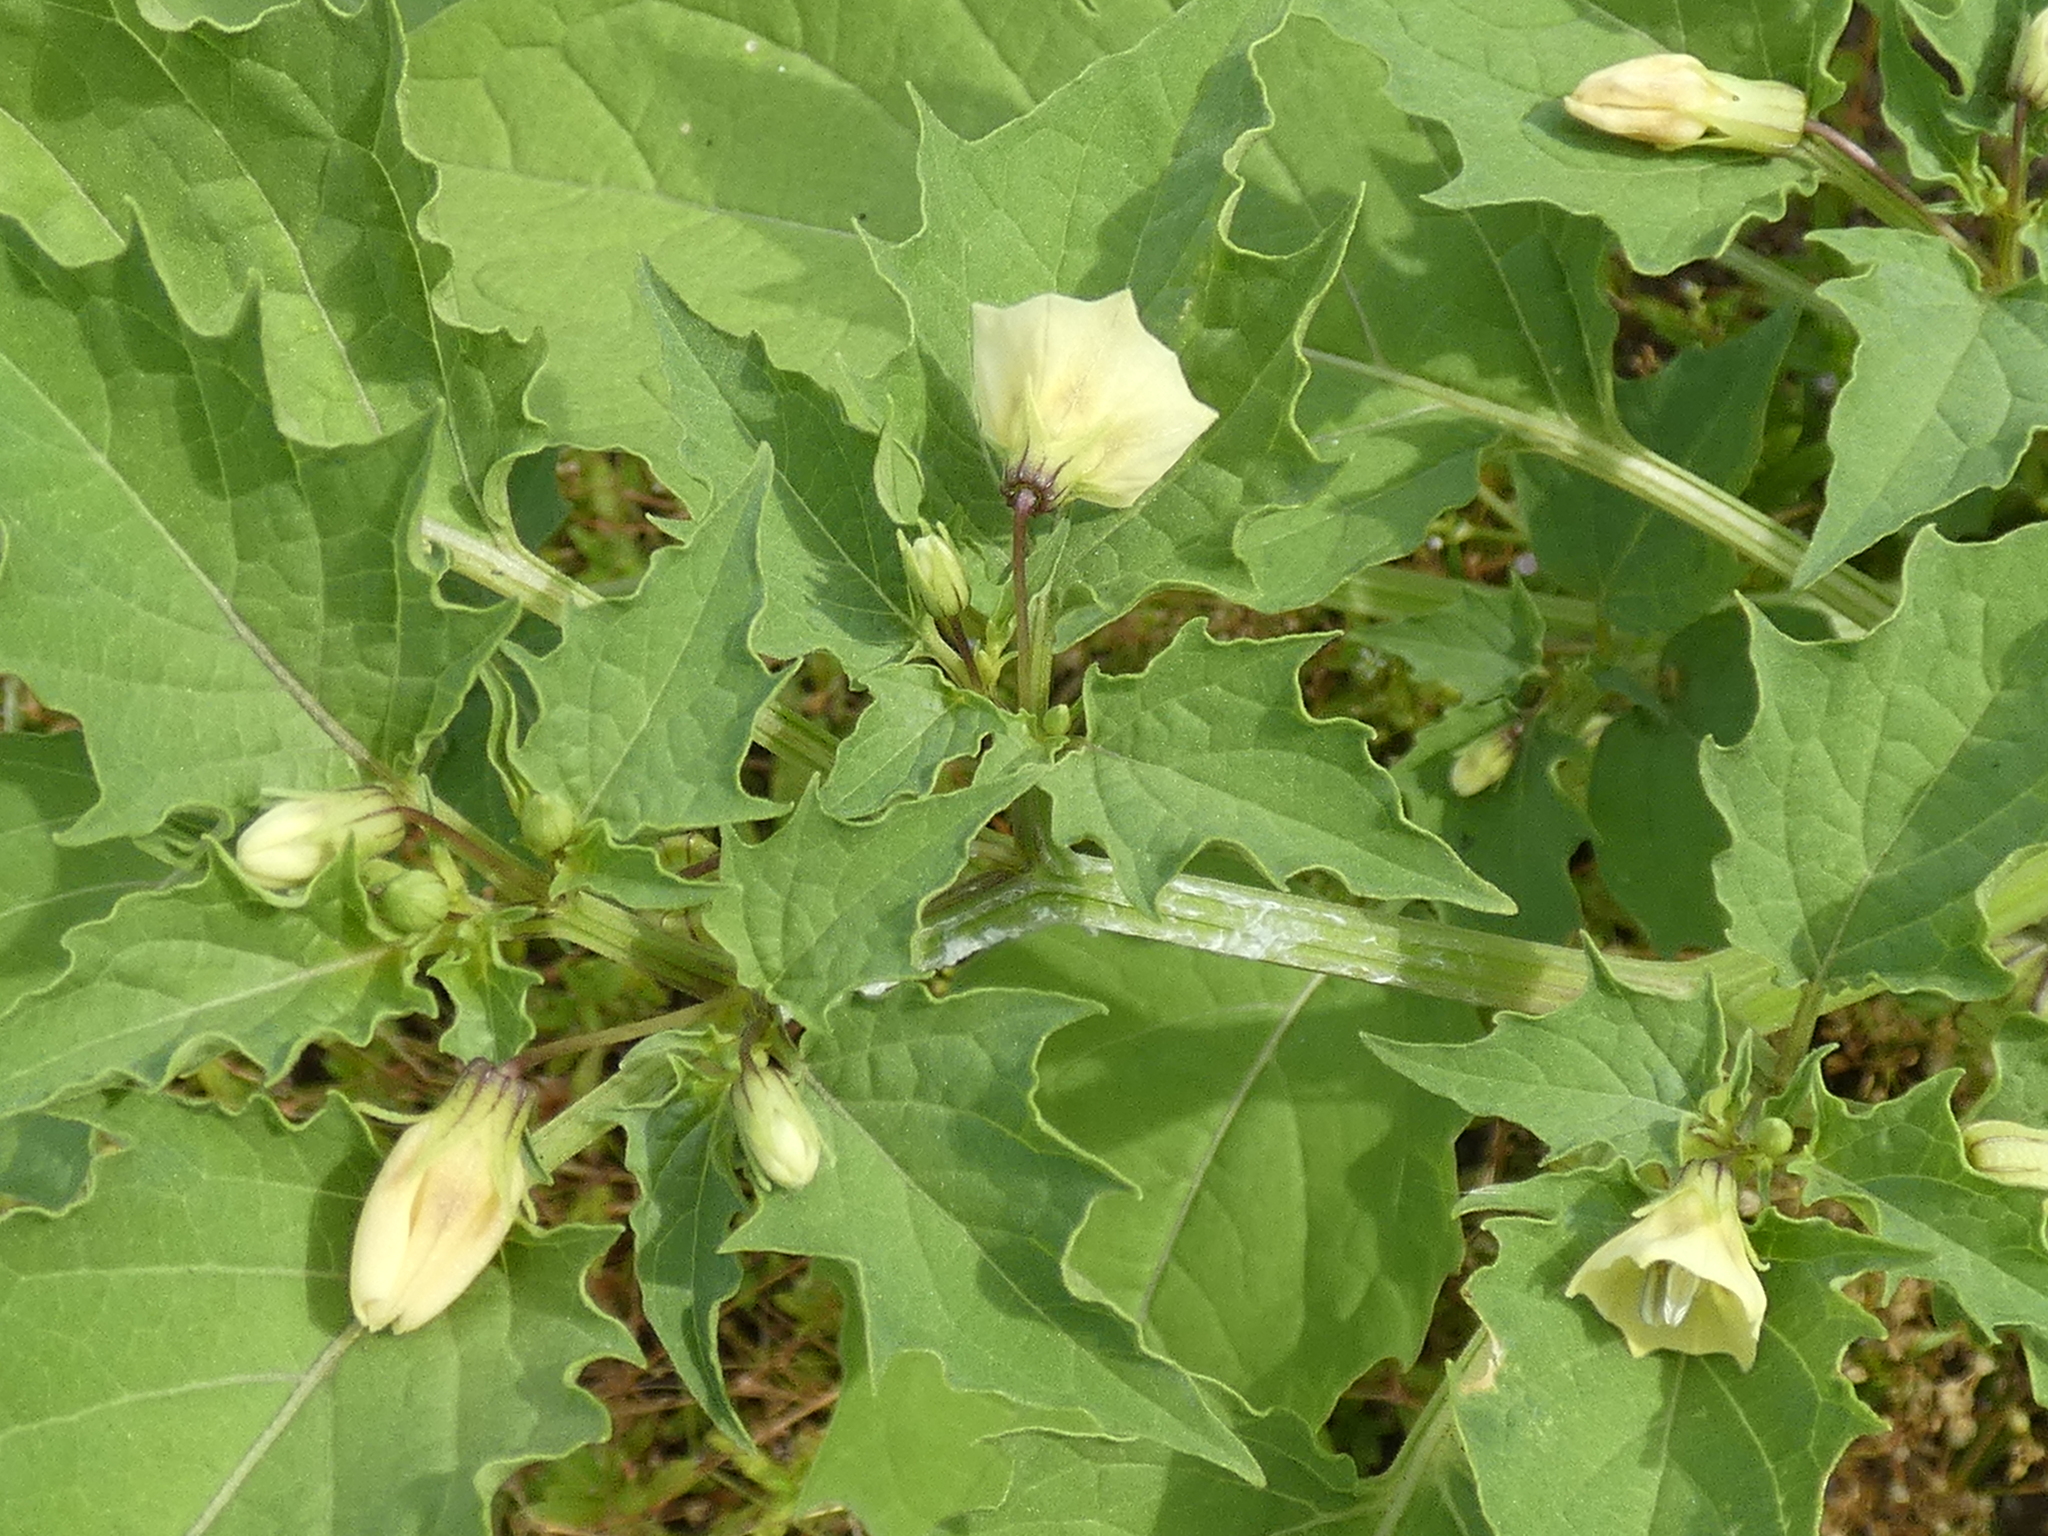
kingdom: Plantae
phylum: Tracheophyta
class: Magnoliopsida
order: Solanales
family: Solanaceae
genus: Physalis
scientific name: Physalis angulata
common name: Angular winter-cherry
